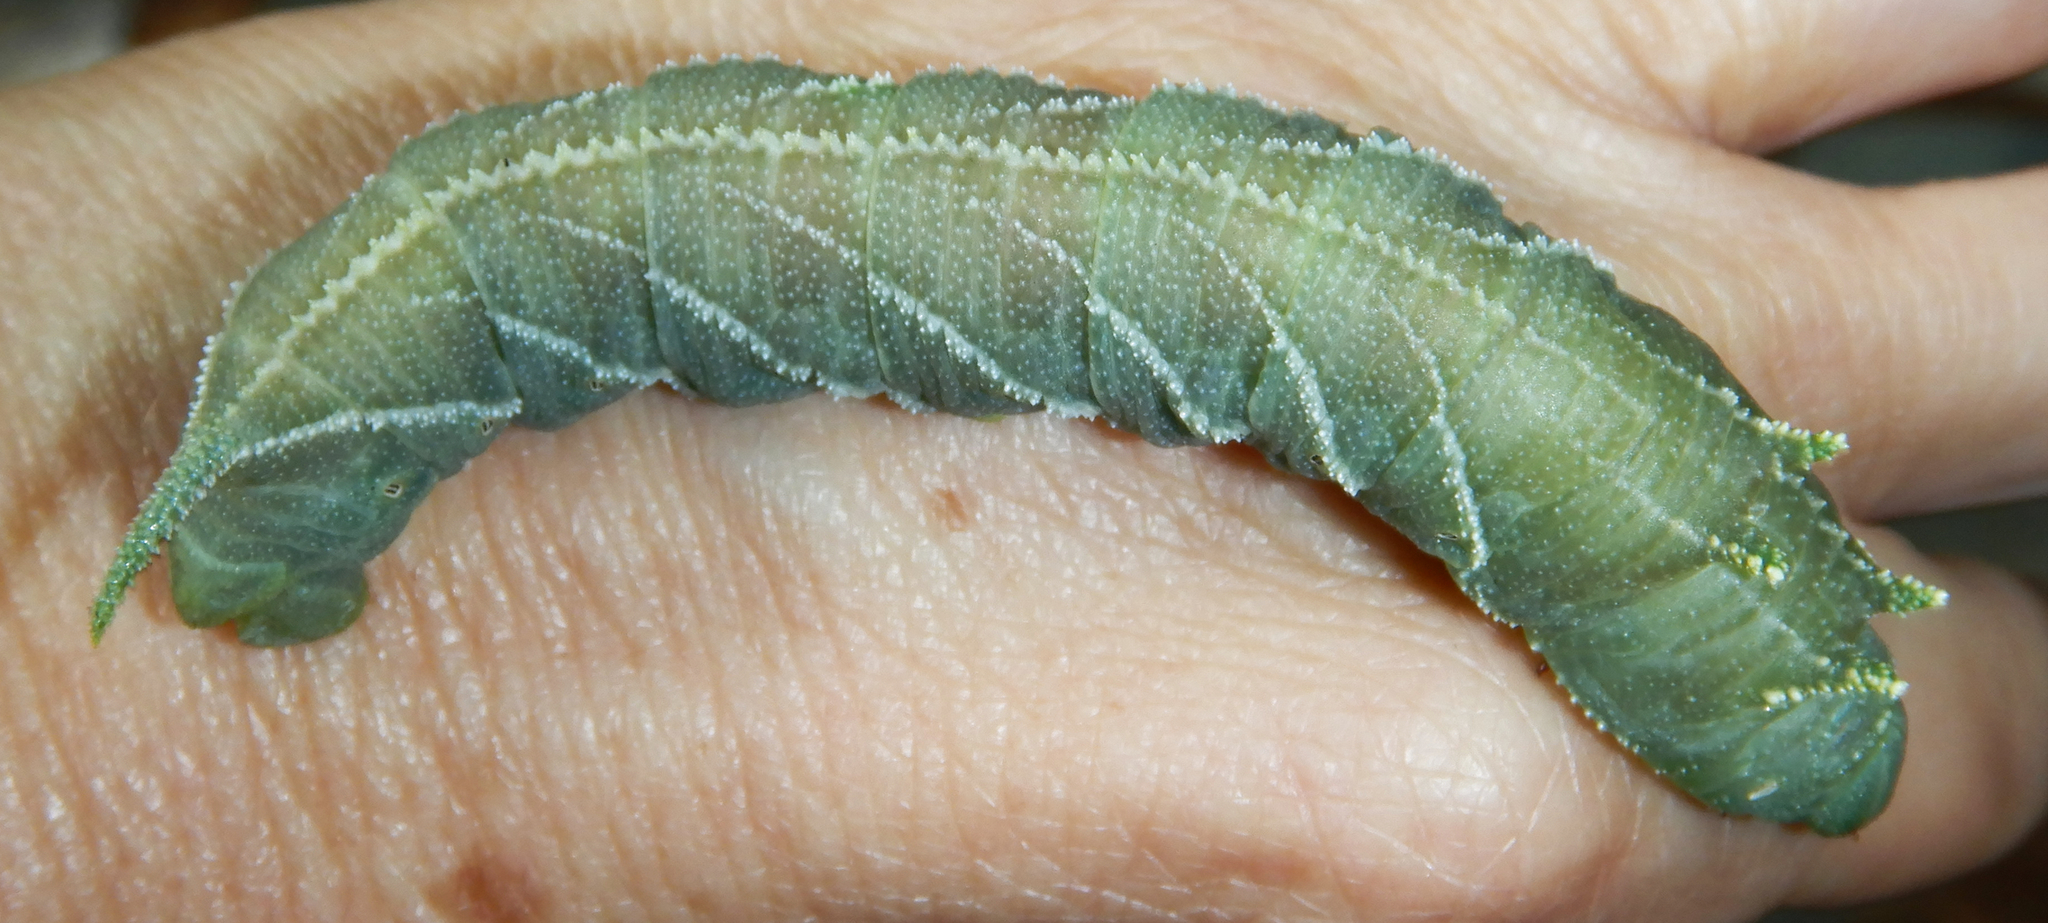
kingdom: Animalia
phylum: Arthropoda
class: Insecta
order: Lepidoptera
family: Sphingidae
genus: Ceratomia
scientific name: Ceratomia amyntor
